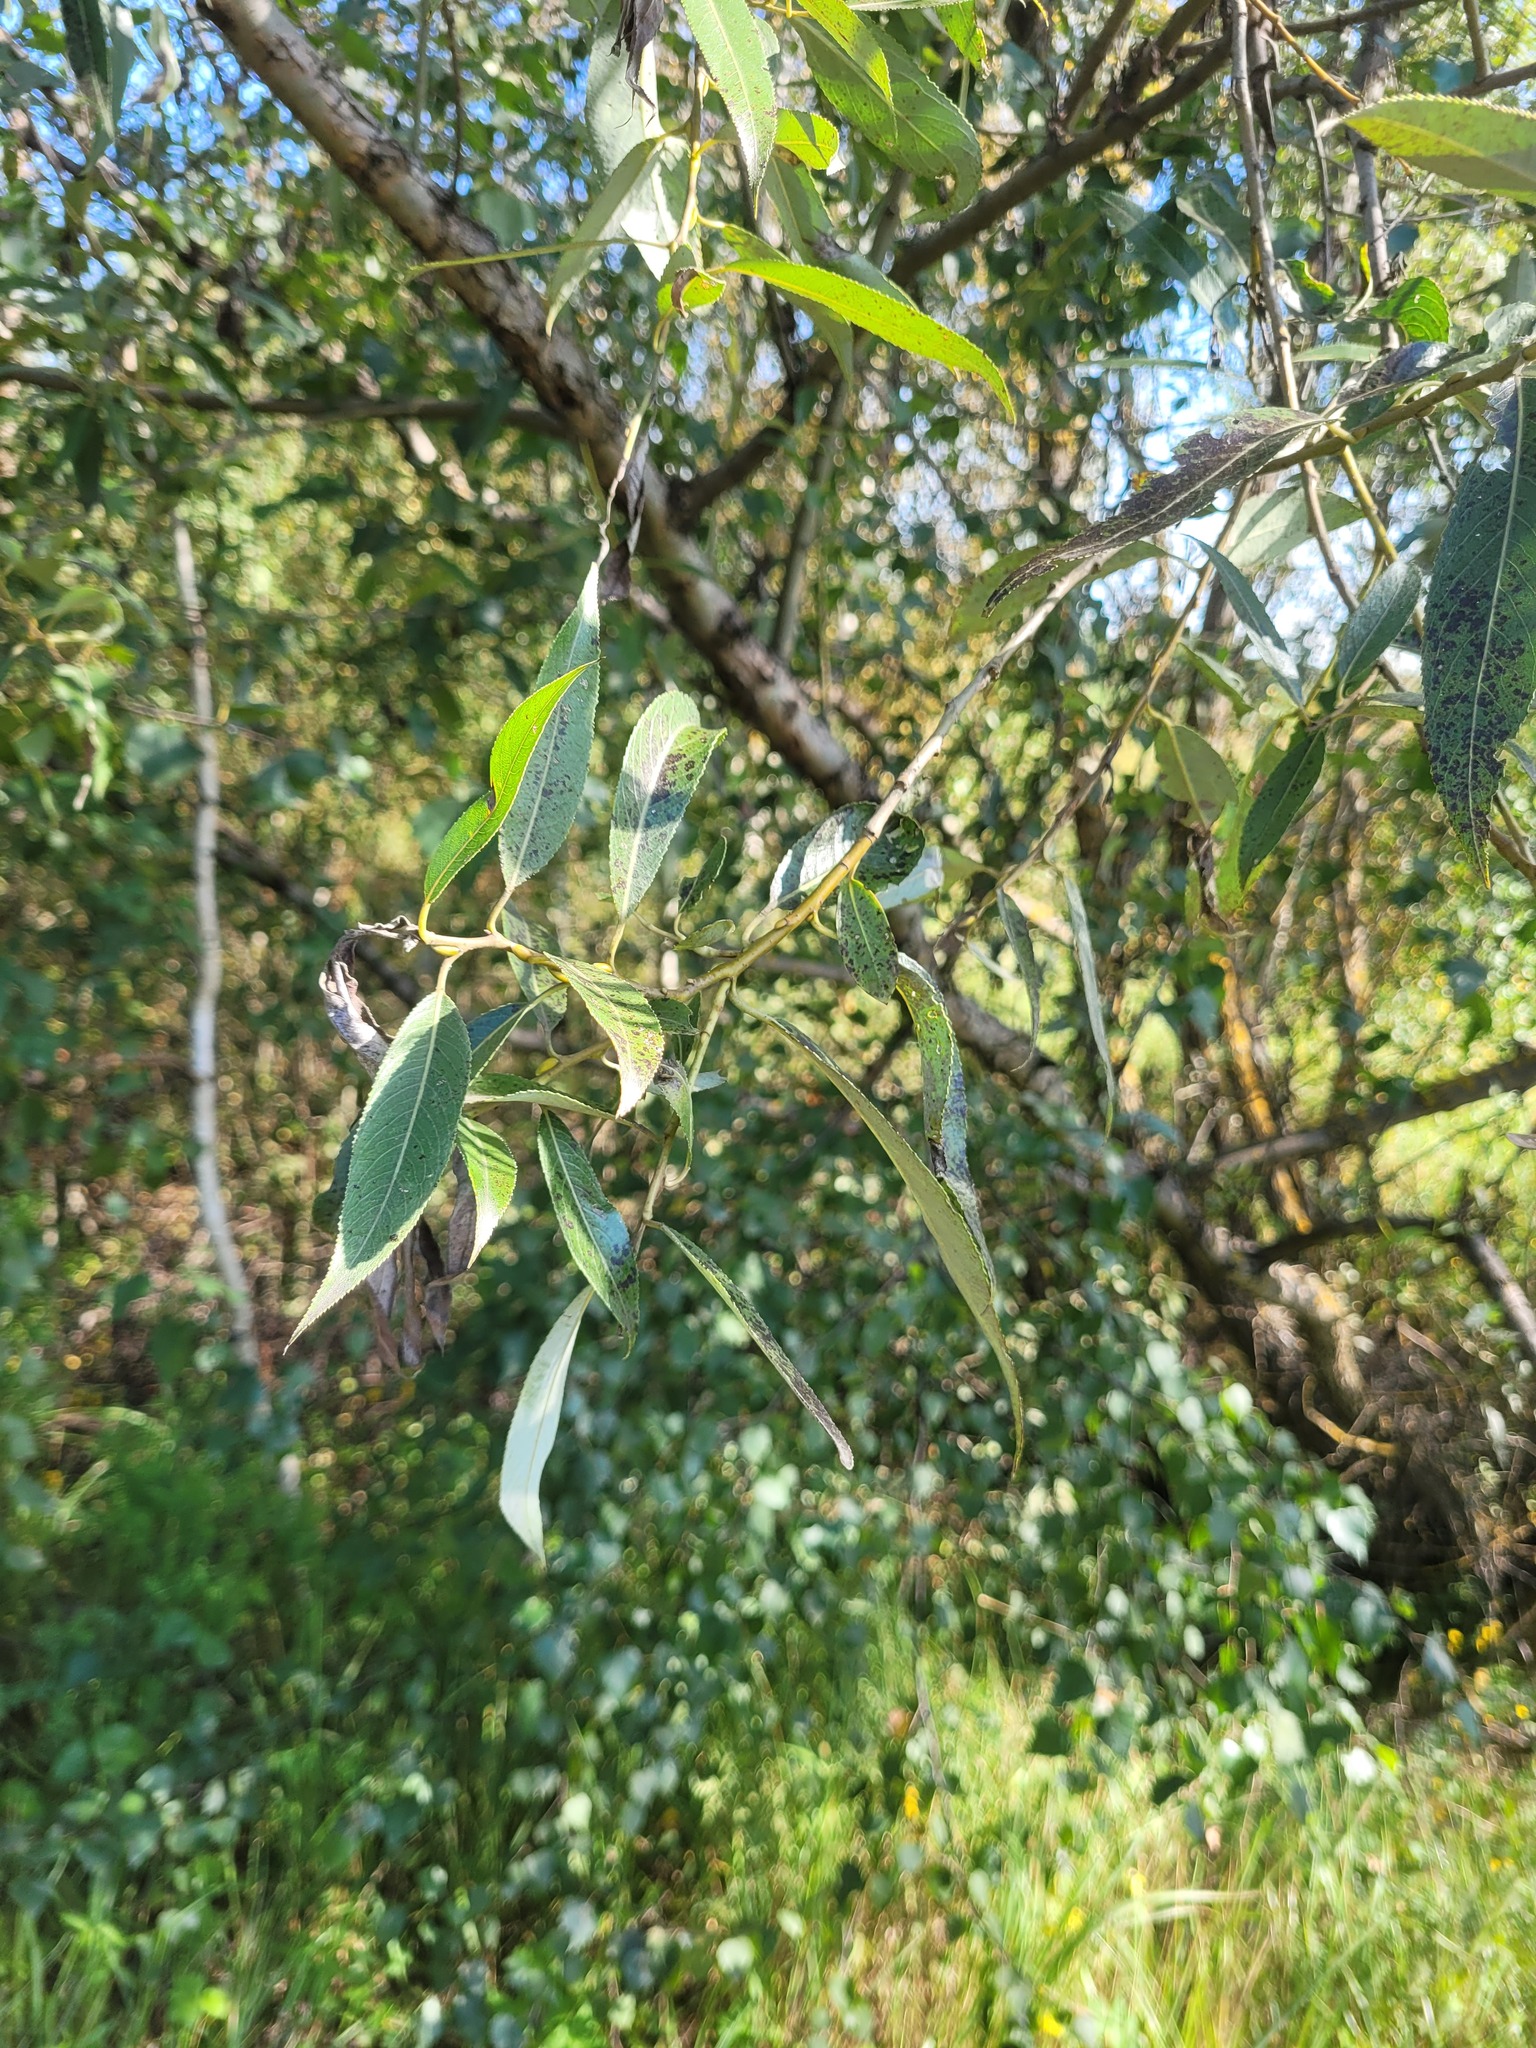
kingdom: Plantae
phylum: Tracheophyta
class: Magnoliopsida
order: Malpighiales
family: Salicaceae
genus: Salix
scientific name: Salix alba
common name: White willow
